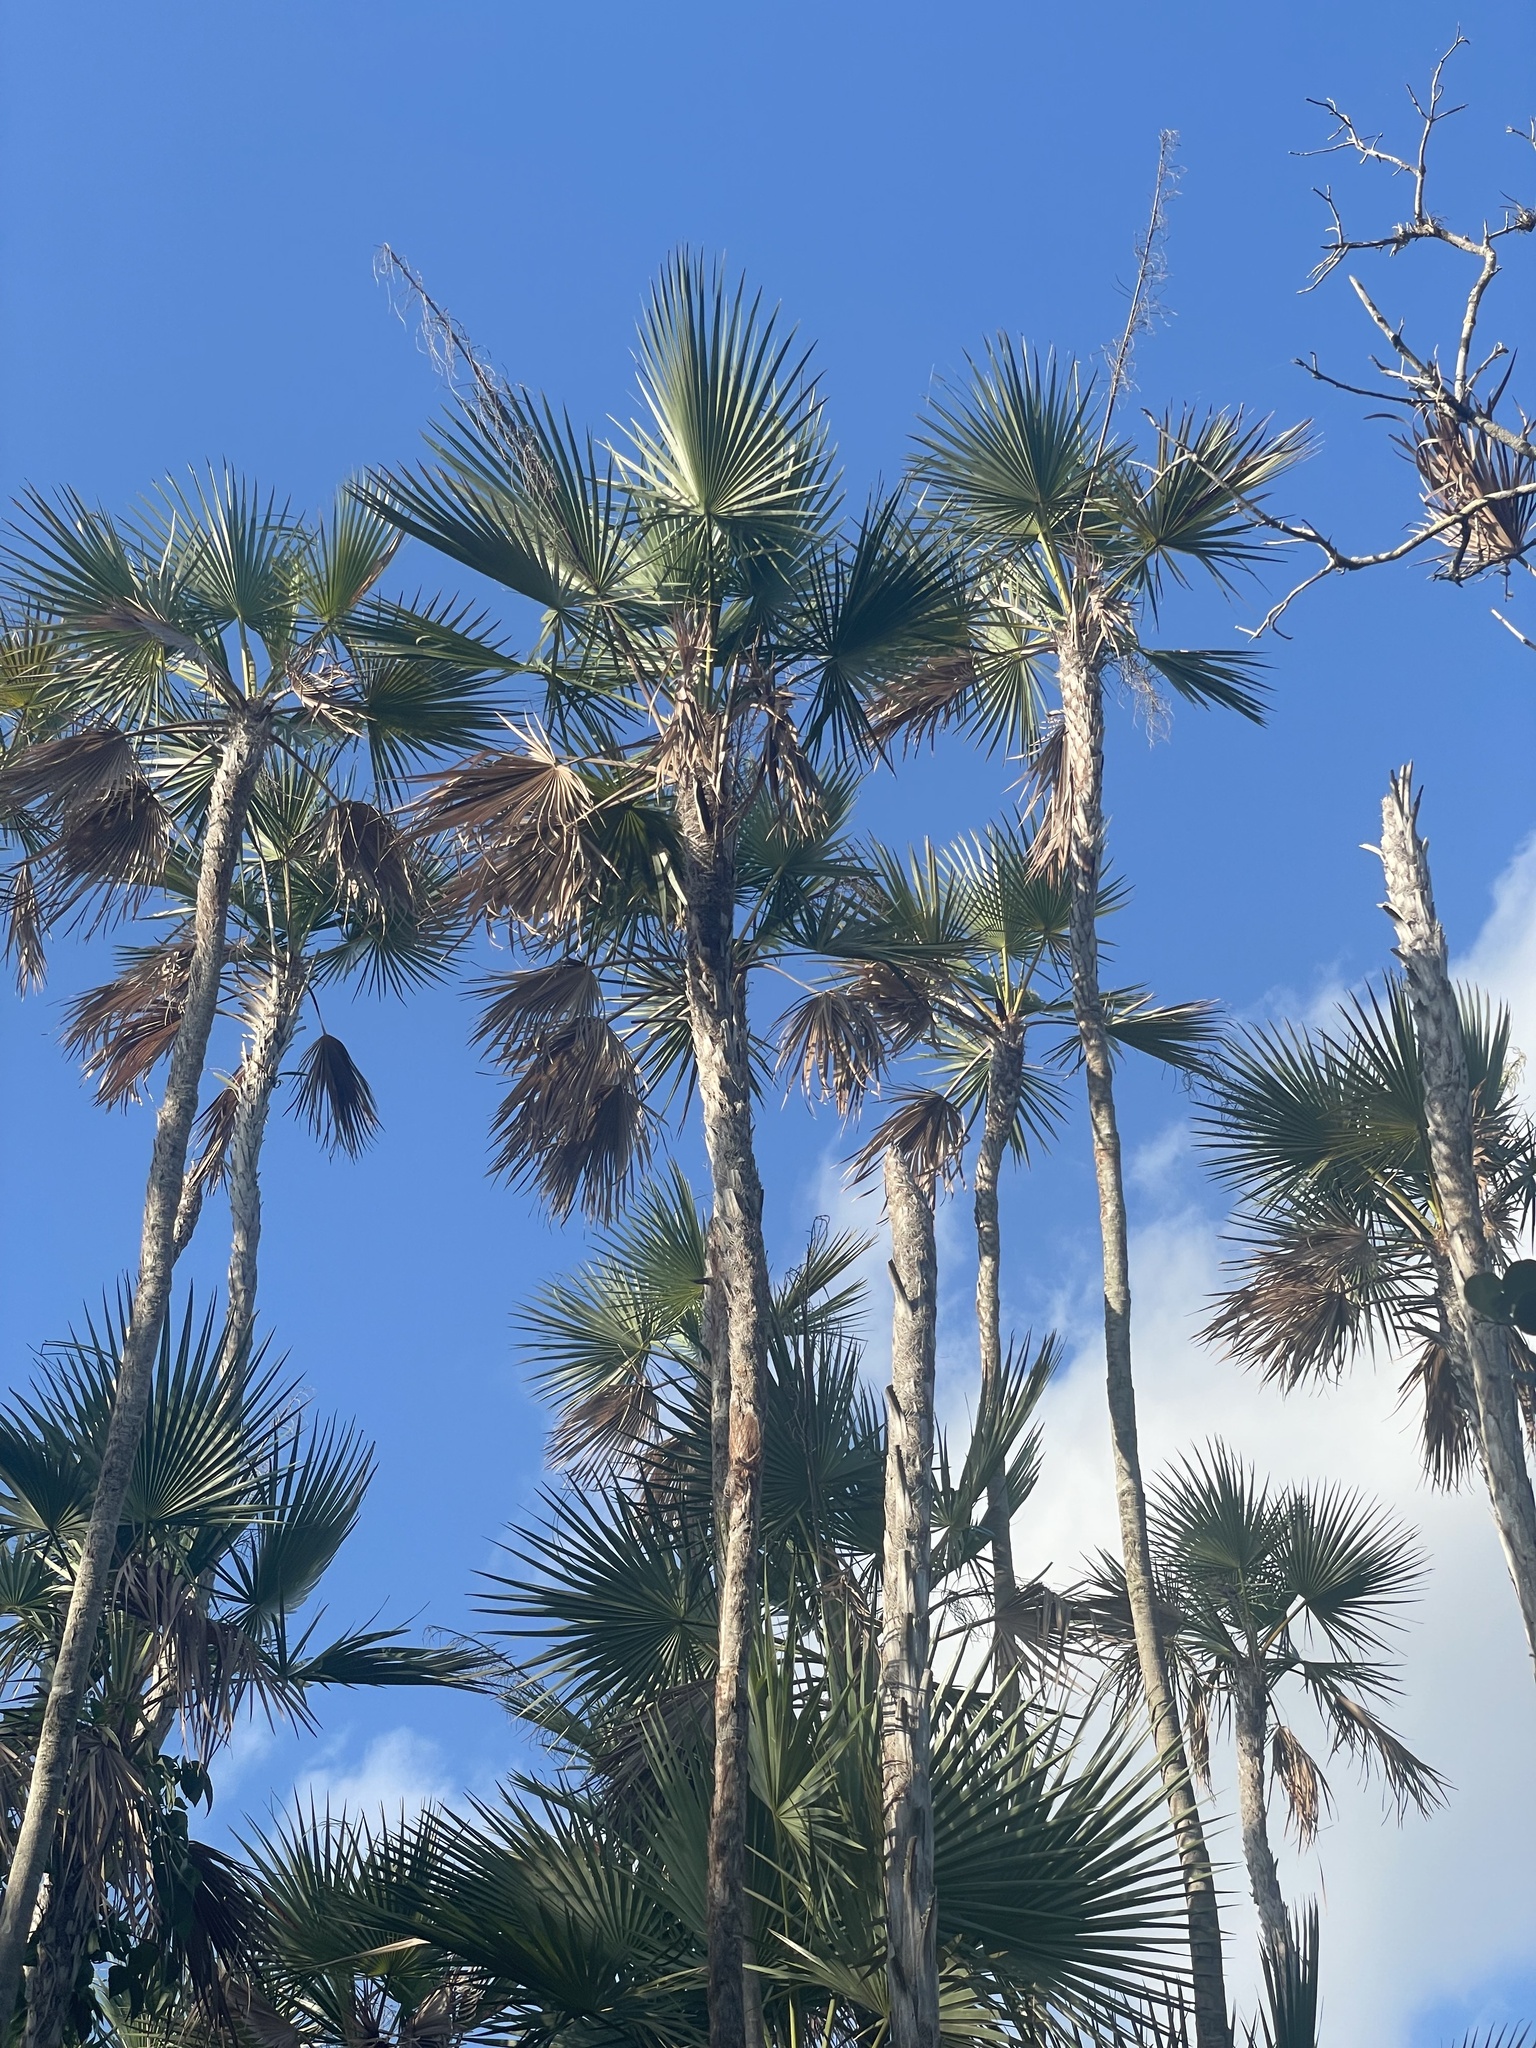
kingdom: Plantae
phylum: Tracheophyta
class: Liliopsida
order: Arecales
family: Arecaceae
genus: Acoelorraphe
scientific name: Acoelorraphe wrightii
